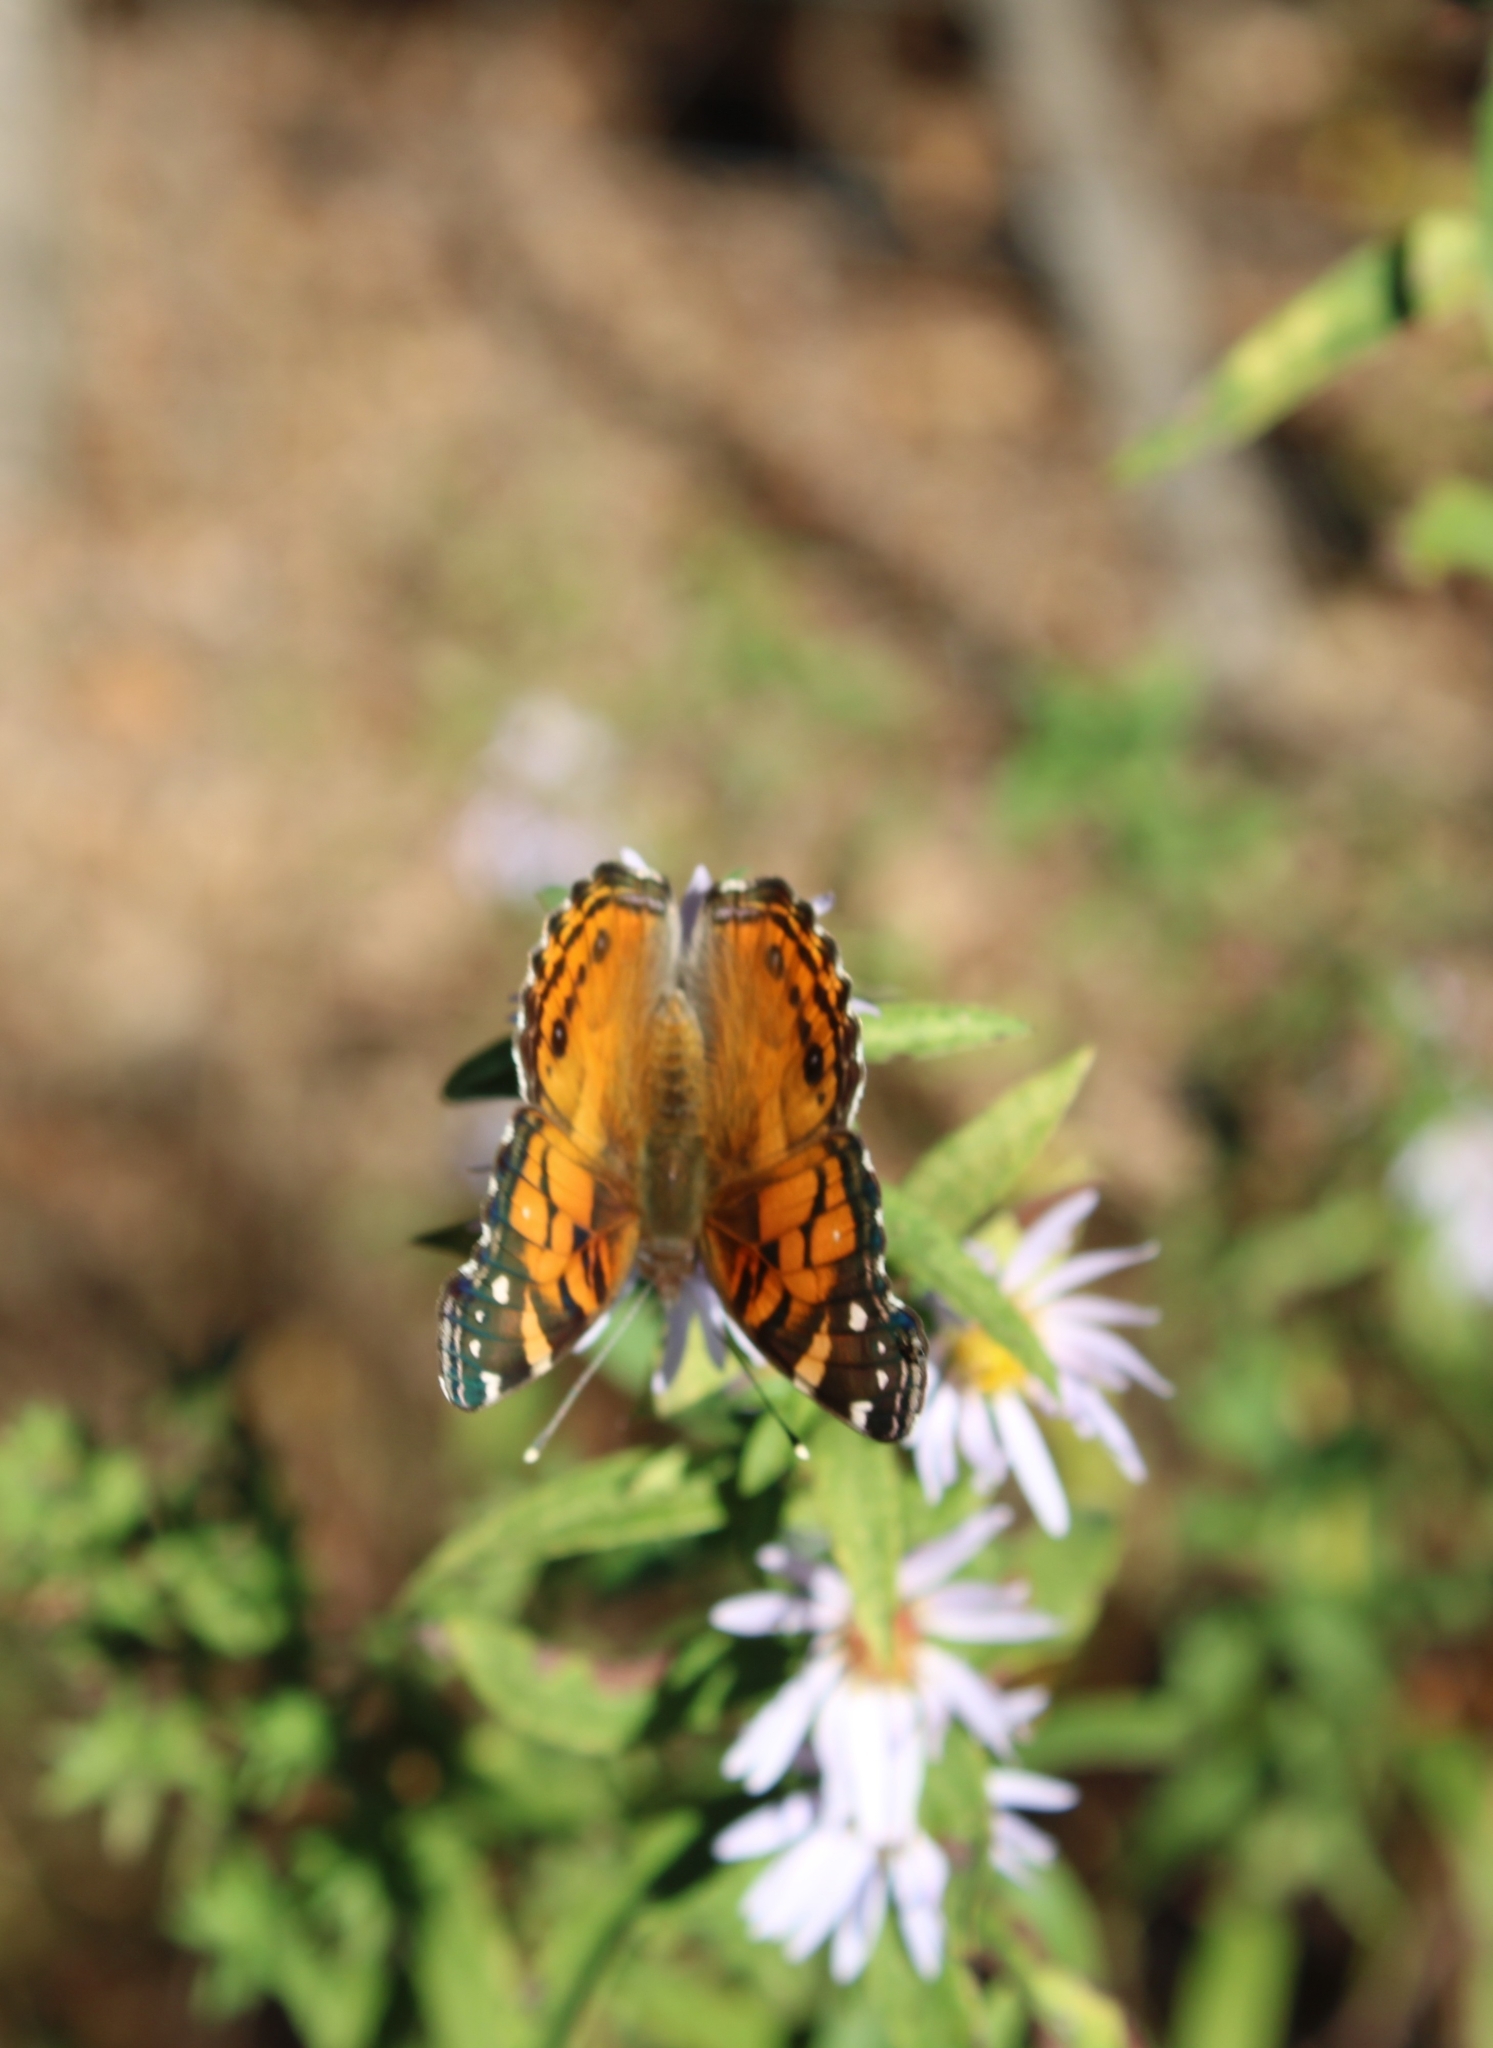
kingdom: Animalia
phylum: Arthropoda
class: Insecta
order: Lepidoptera
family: Nymphalidae
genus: Vanessa
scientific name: Vanessa virginiensis
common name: American lady
